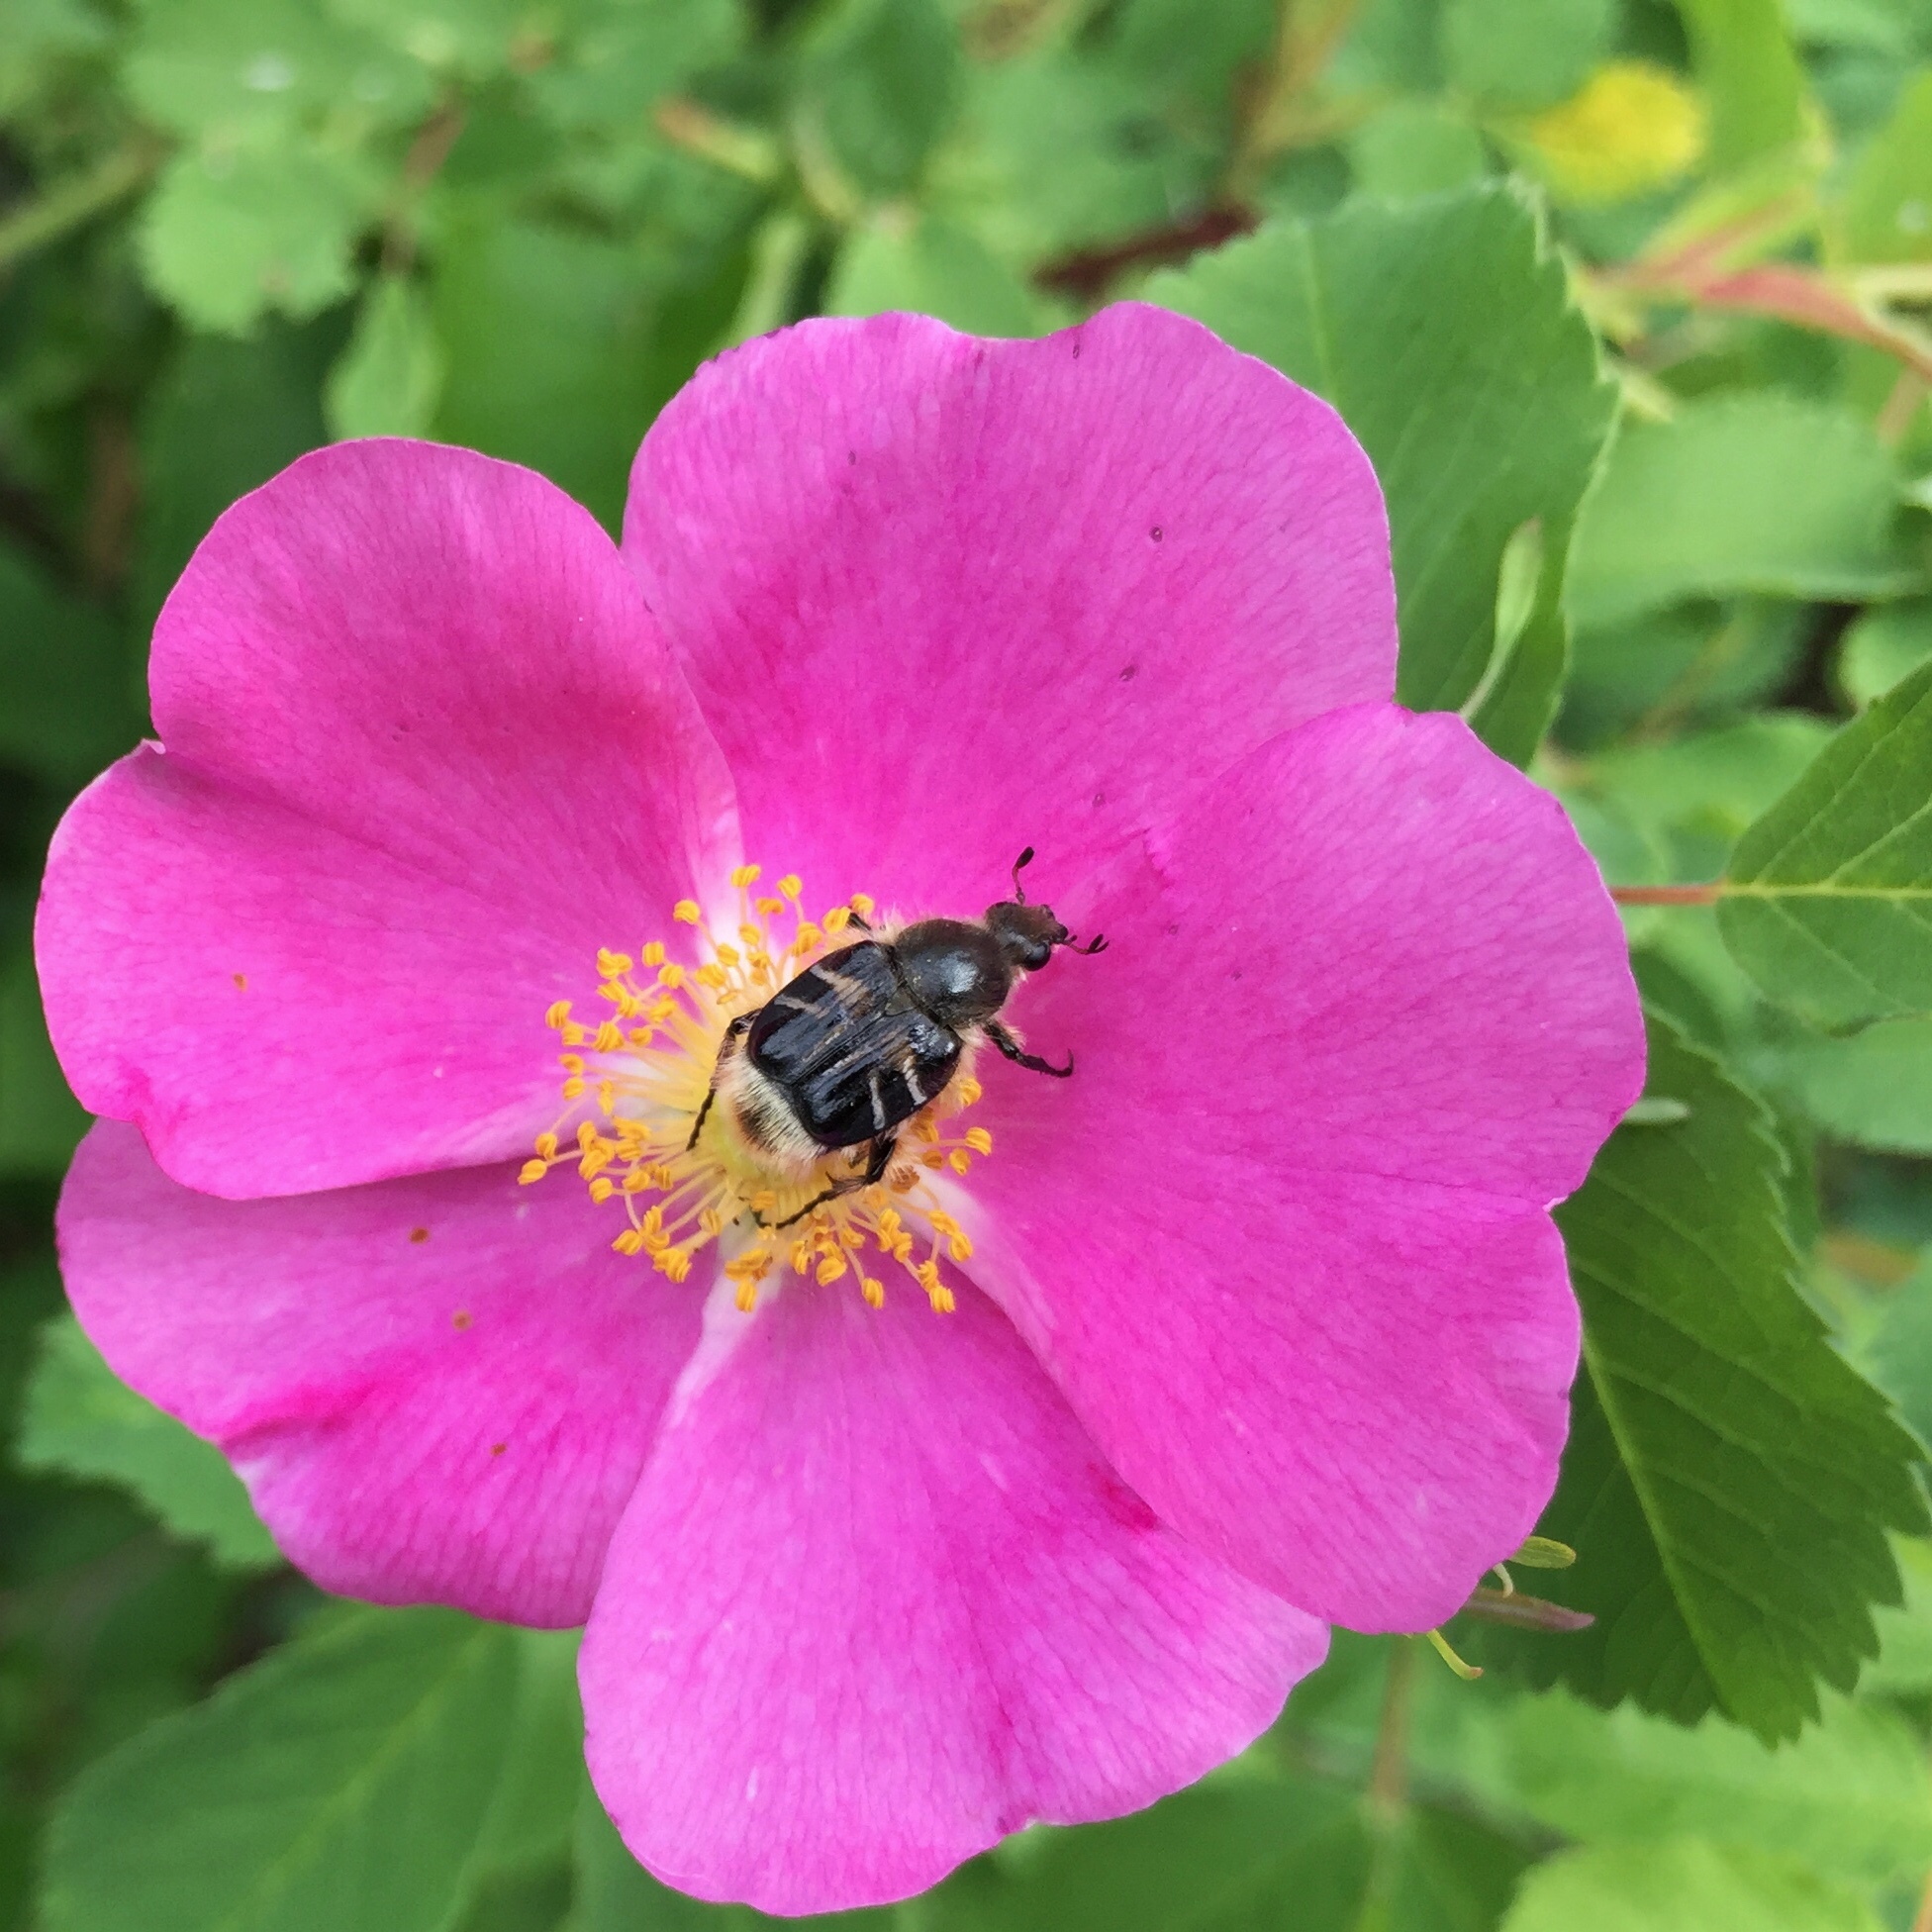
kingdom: Animalia
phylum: Arthropoda
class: Insecta
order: Coleoptera
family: Scarabaeidae
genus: Trichiotinus
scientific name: Trichiotinus assimilis
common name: Bee-mimic beetle
